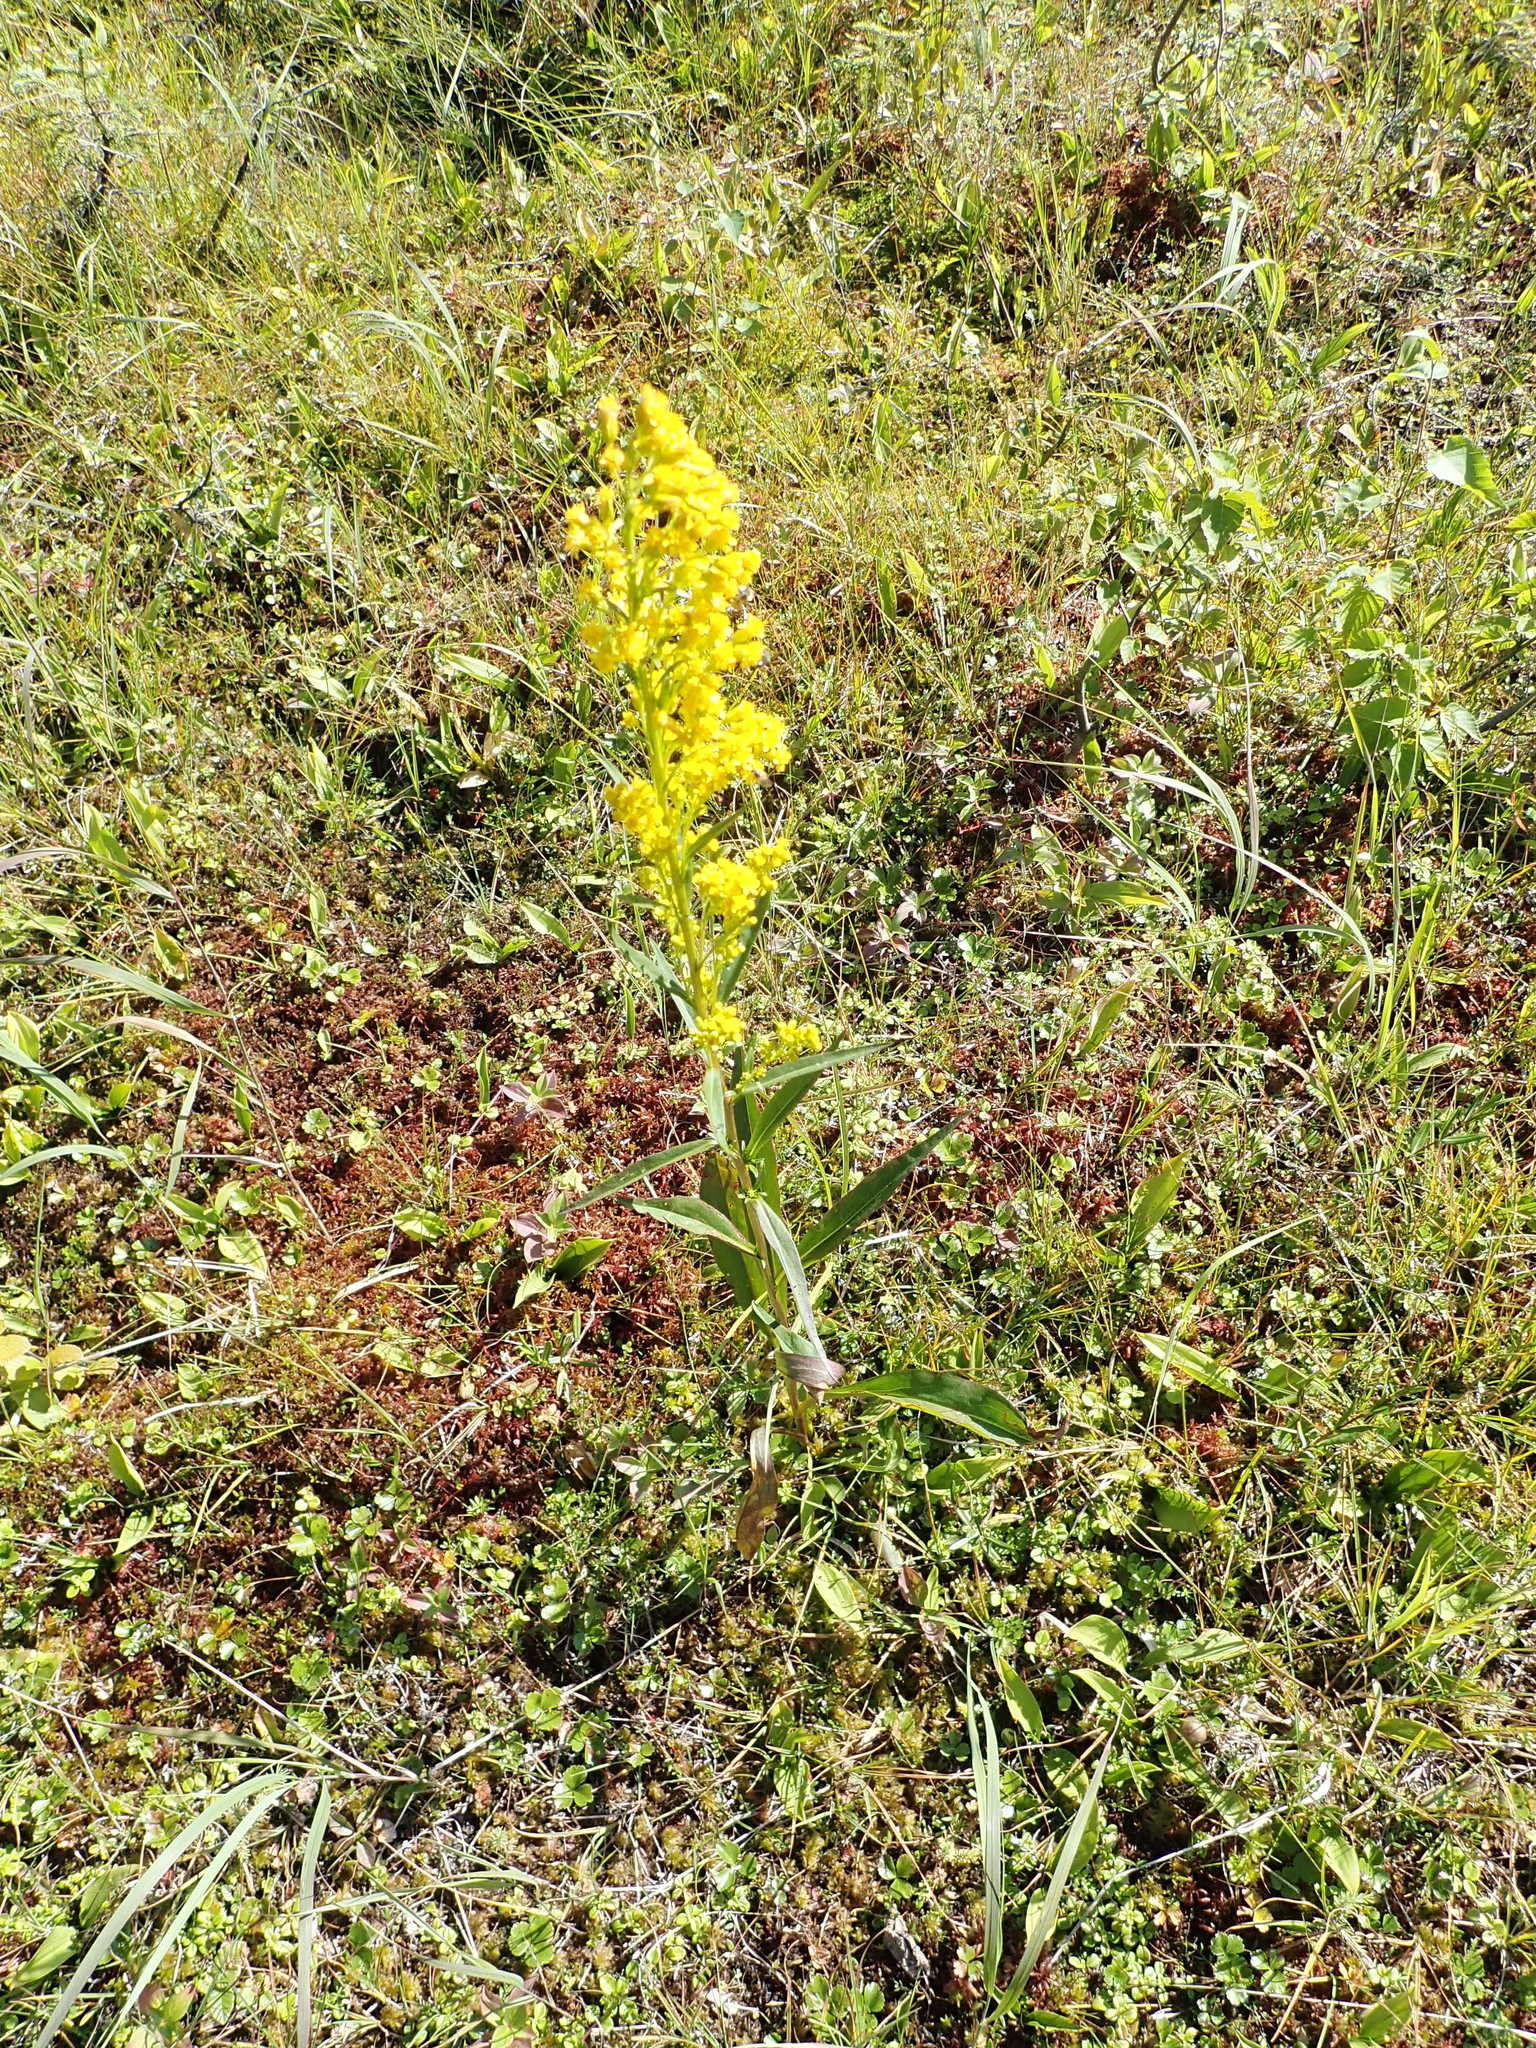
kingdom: Plantae
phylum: Tracheophyta
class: Magnoliopsida
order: Asterales
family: Asteraceae
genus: Solidago
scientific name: Solidago uliginosa
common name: Bog goldenrod
